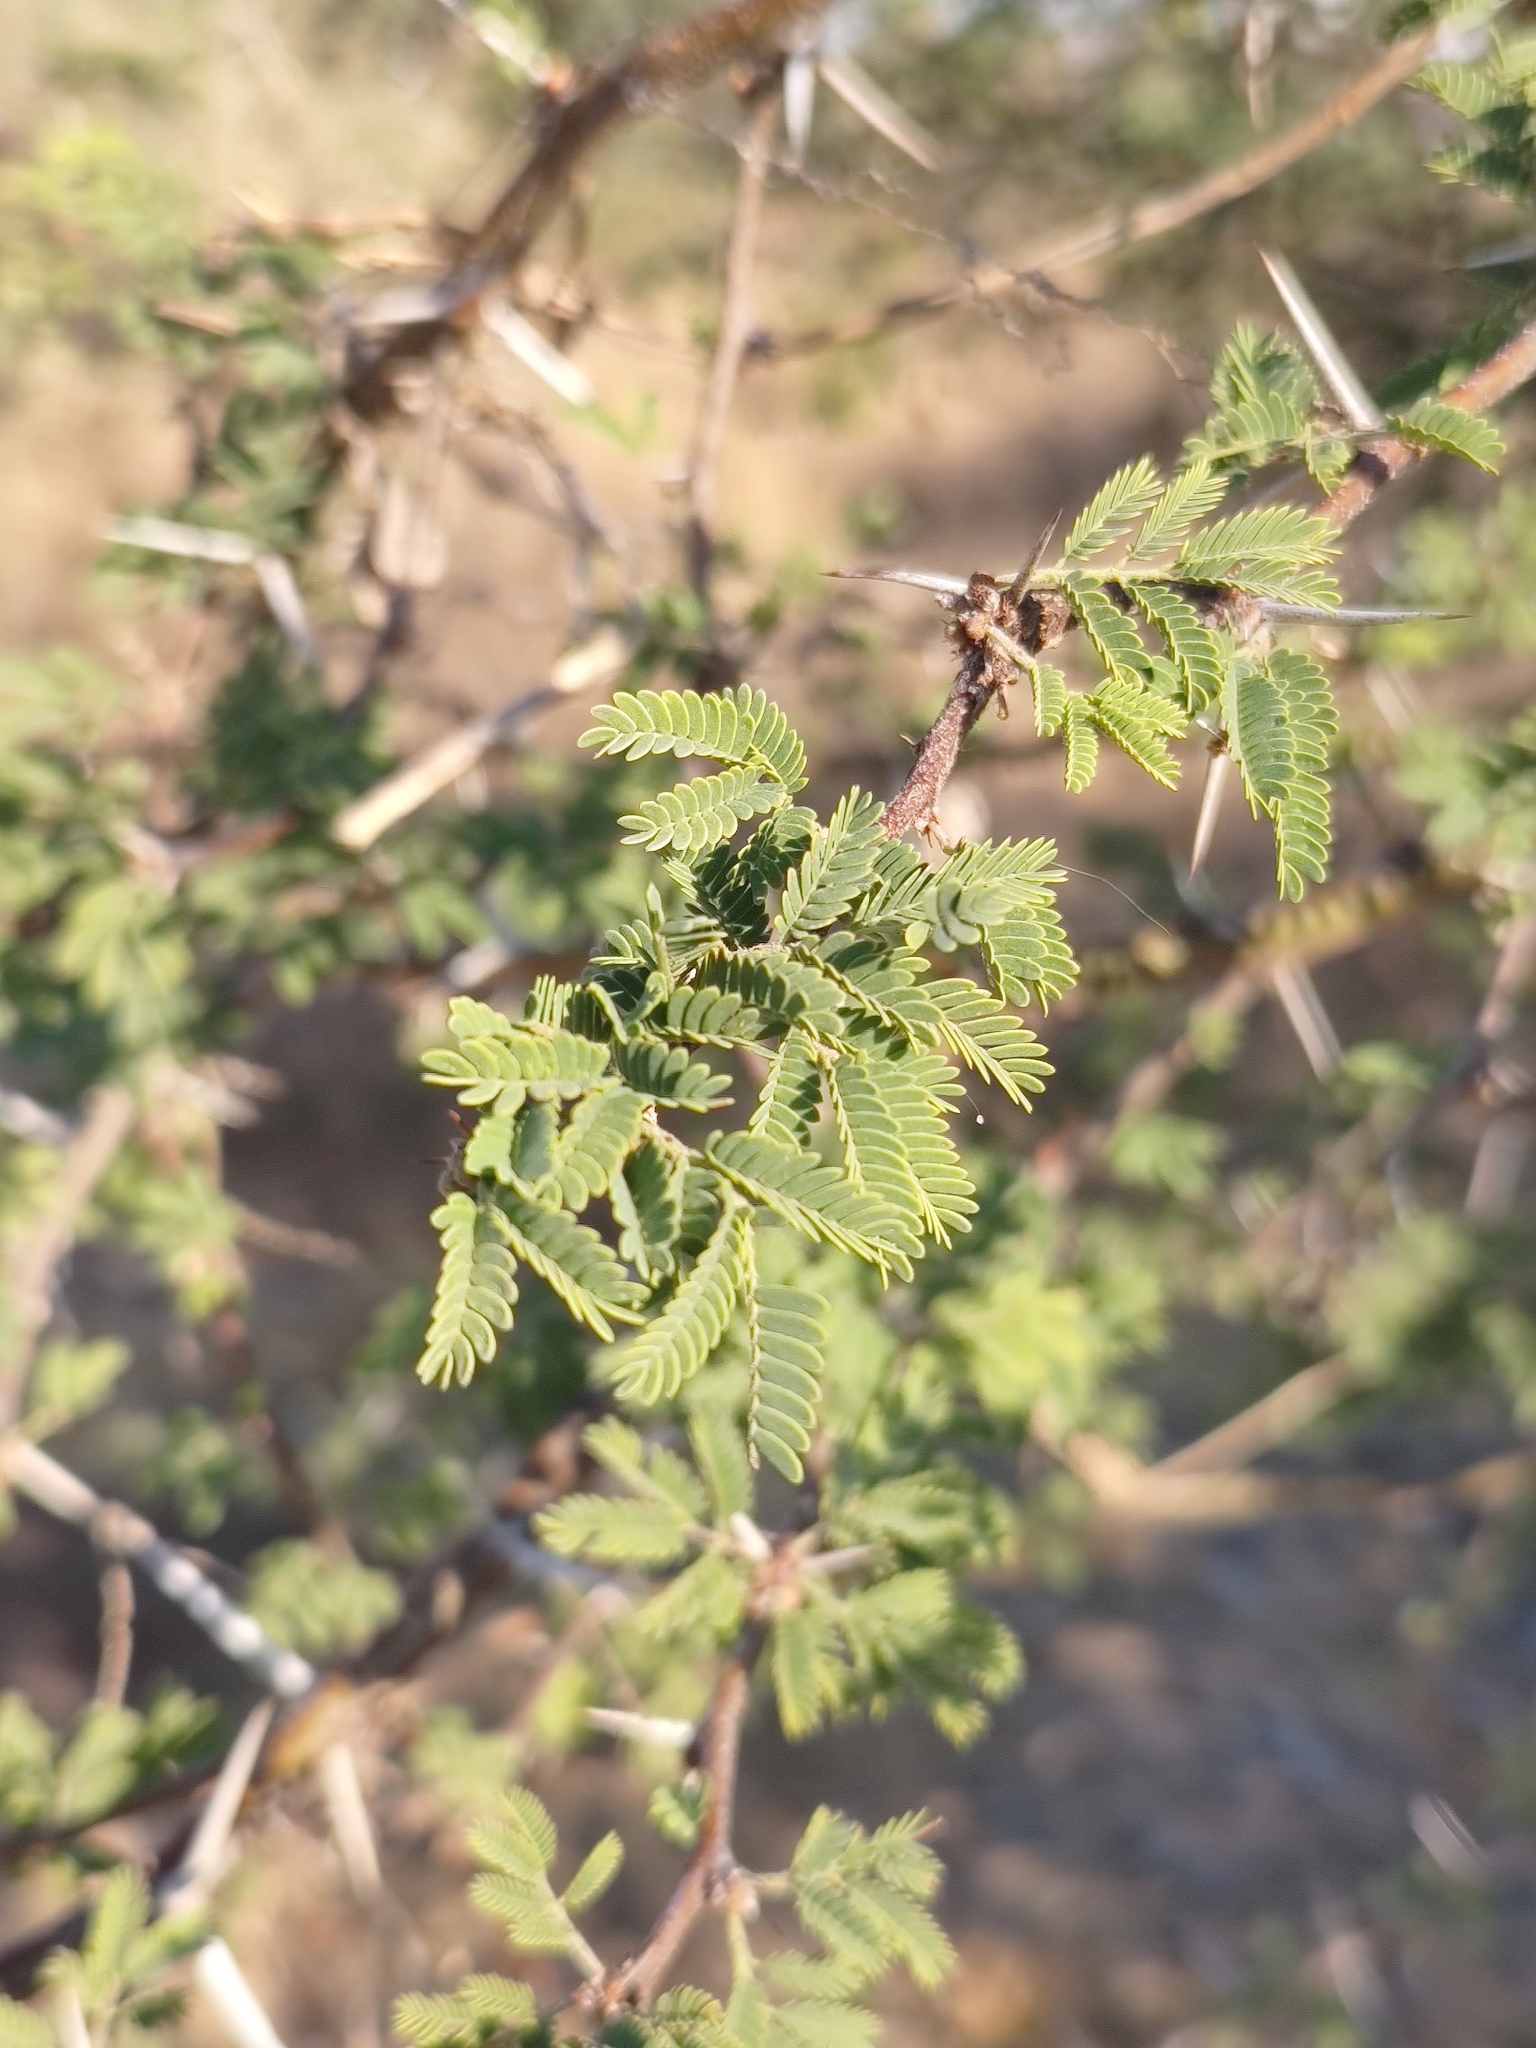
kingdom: Plantae
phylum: Tracheophyta
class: Magnoliopsida
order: Fabales
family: Fabaceae
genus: Vachellia
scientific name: Vachellia farnesiana
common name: Sweet acacia
